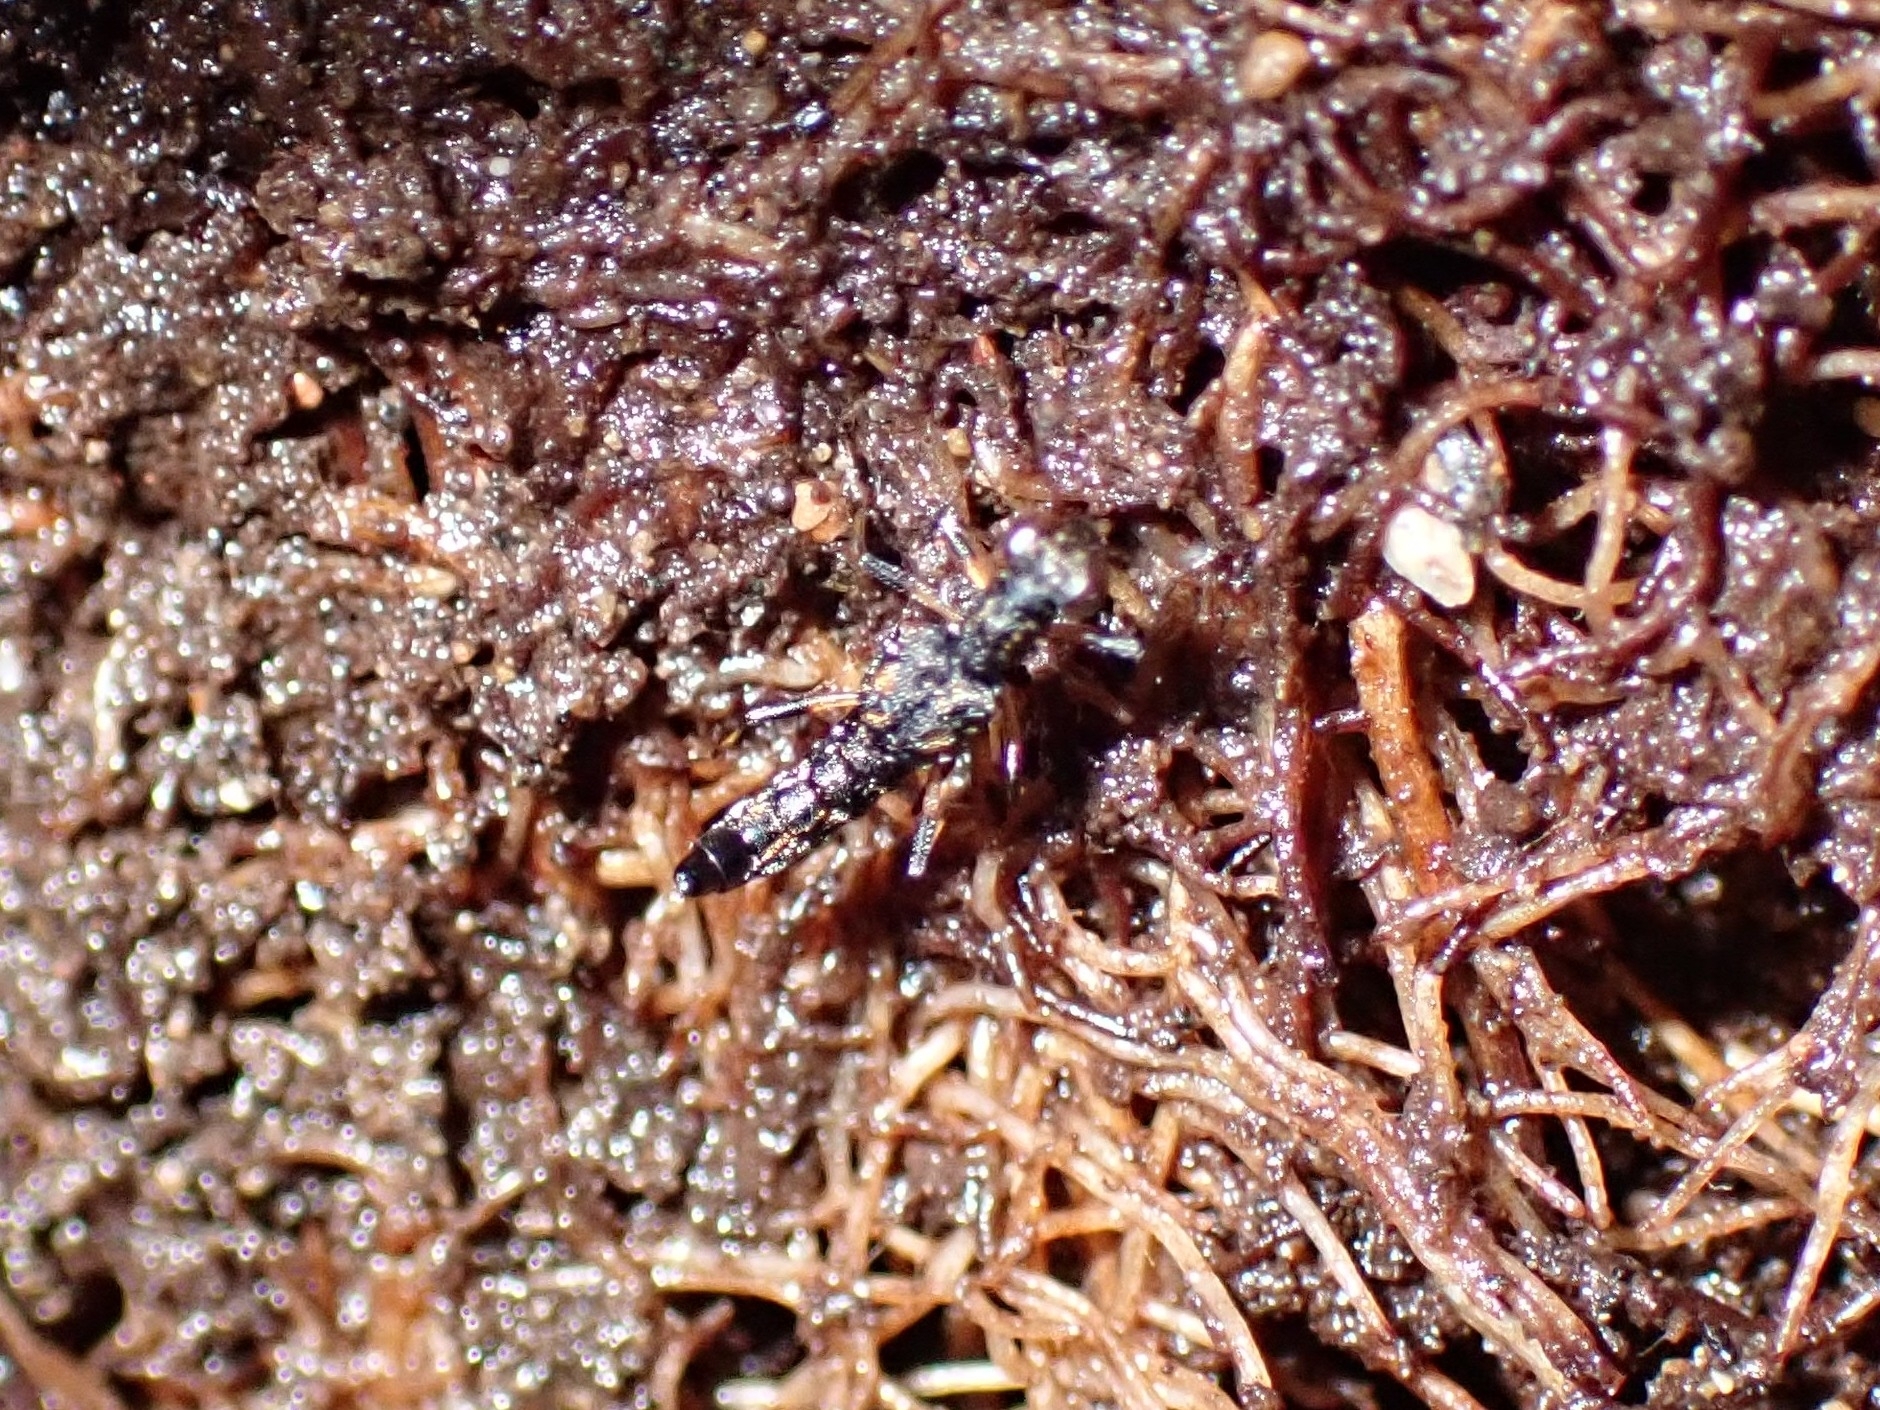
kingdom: Animalia
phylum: Arthropoda
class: Insecta
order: Coleoptera
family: Staphylinidae
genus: Stenus
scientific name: Stenus guttula
